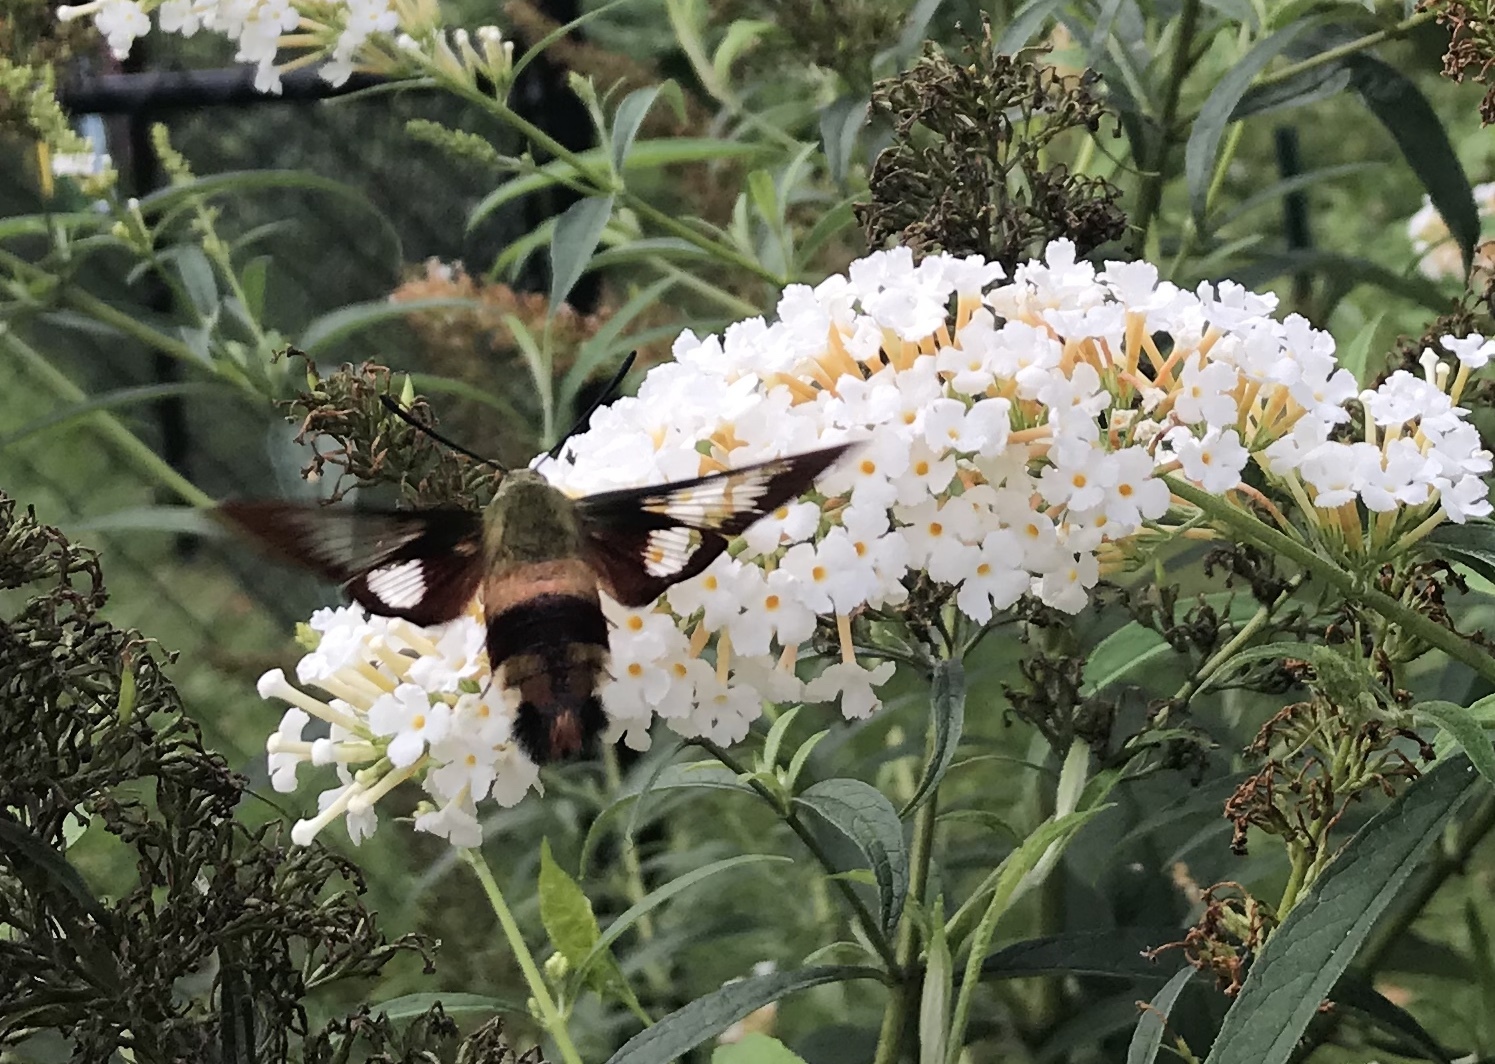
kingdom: Animalia
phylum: Arthropoda
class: Insecta
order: Lepidoptera
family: Sphingidae
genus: Hemaris
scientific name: Hemaris thysbe
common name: Common clear-wing
